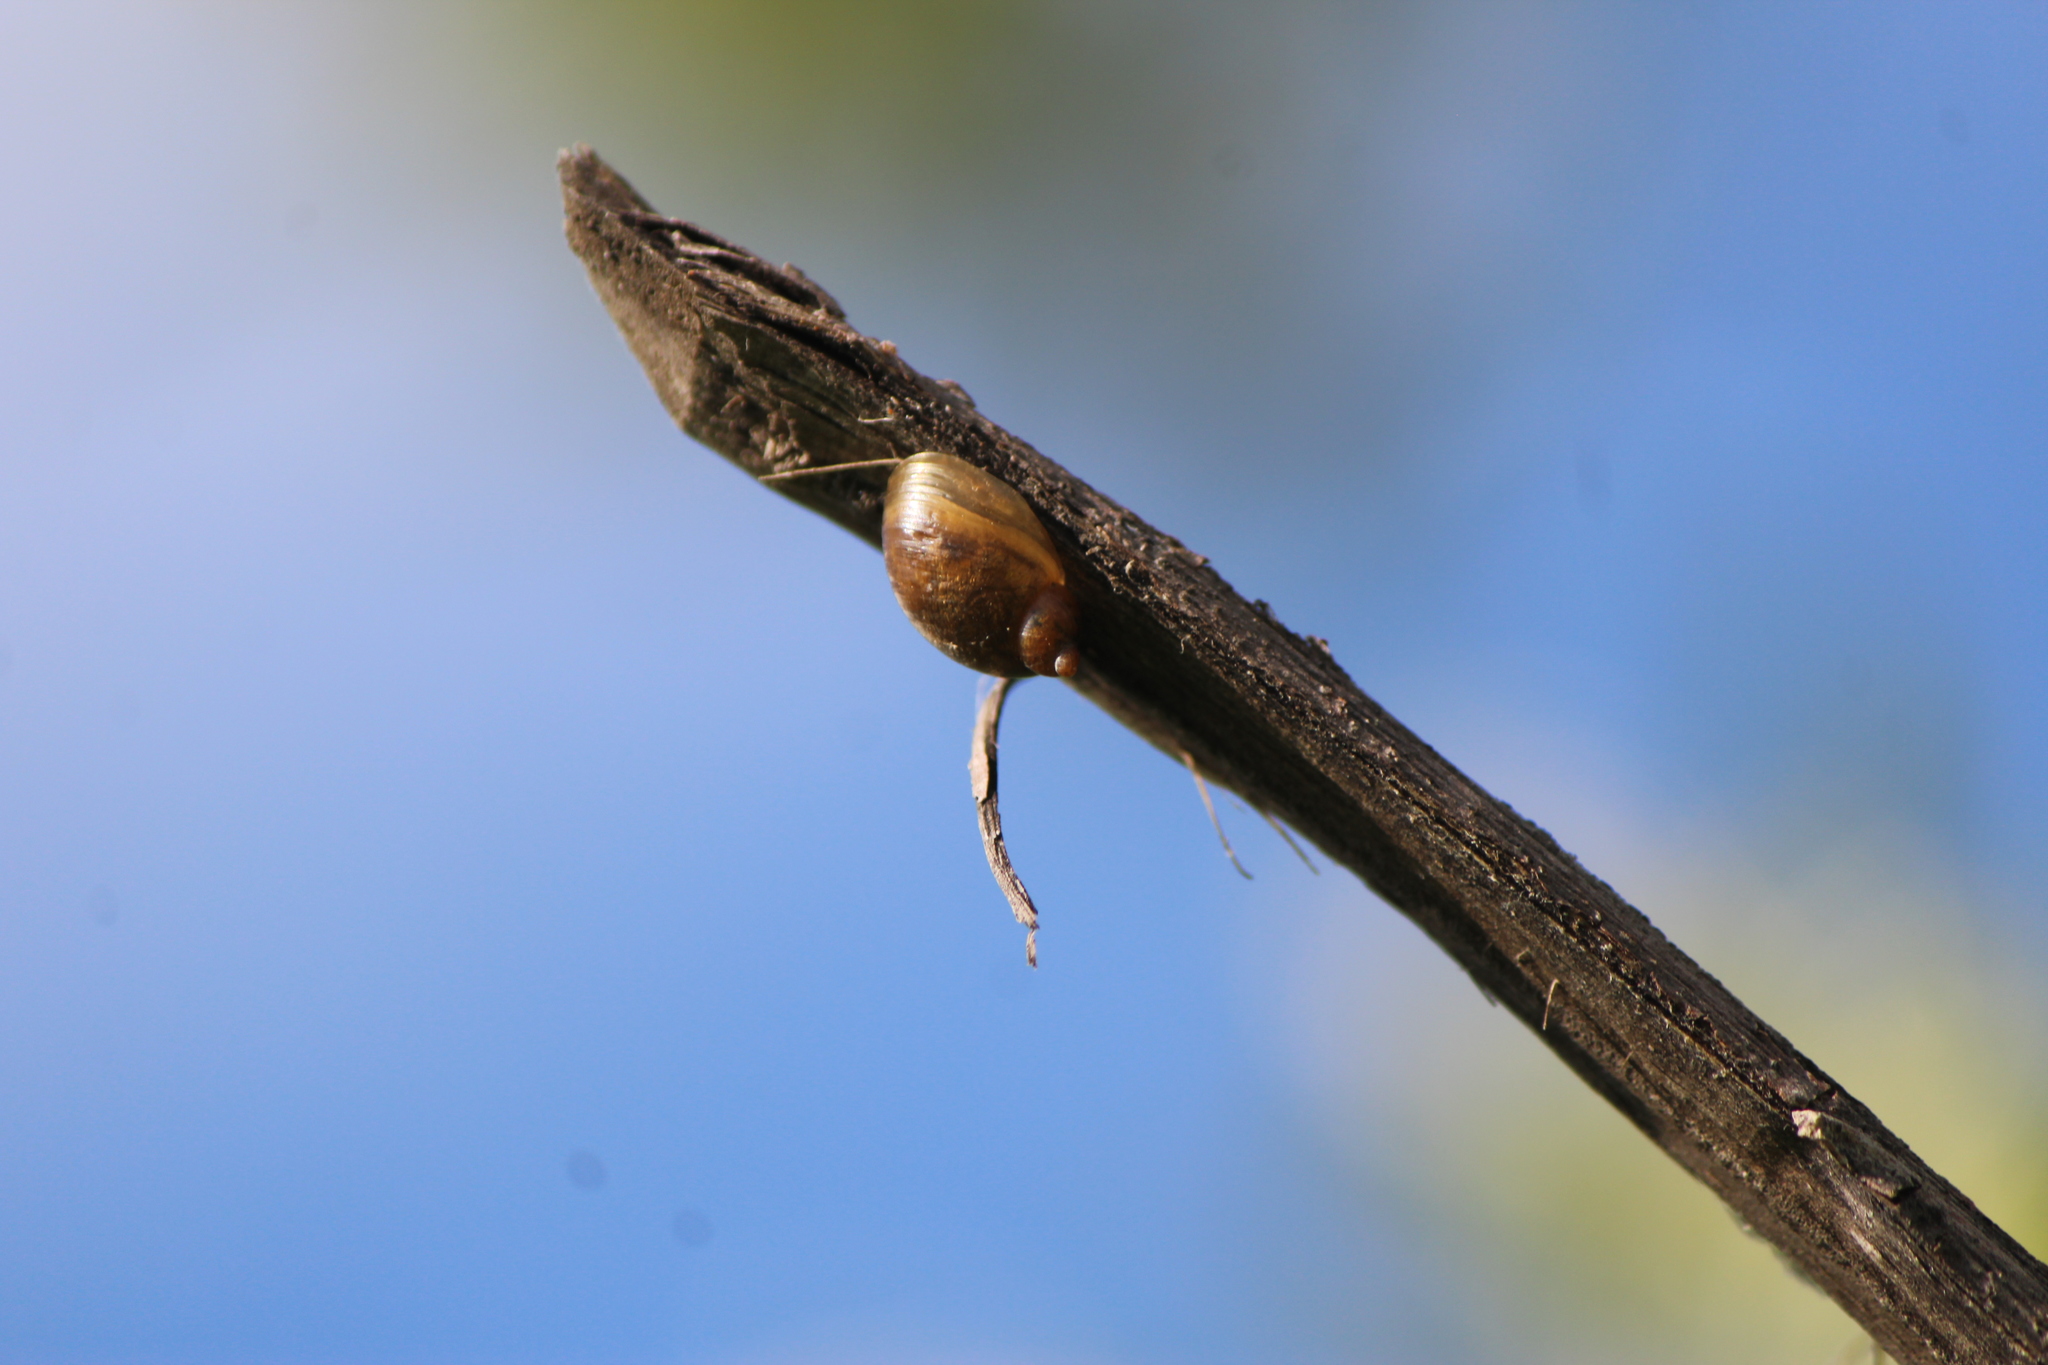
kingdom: Animalia
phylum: Mollusca
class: Gastropoda
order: Stylommatophora
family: Succineidae
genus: Succinea
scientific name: Succinea
